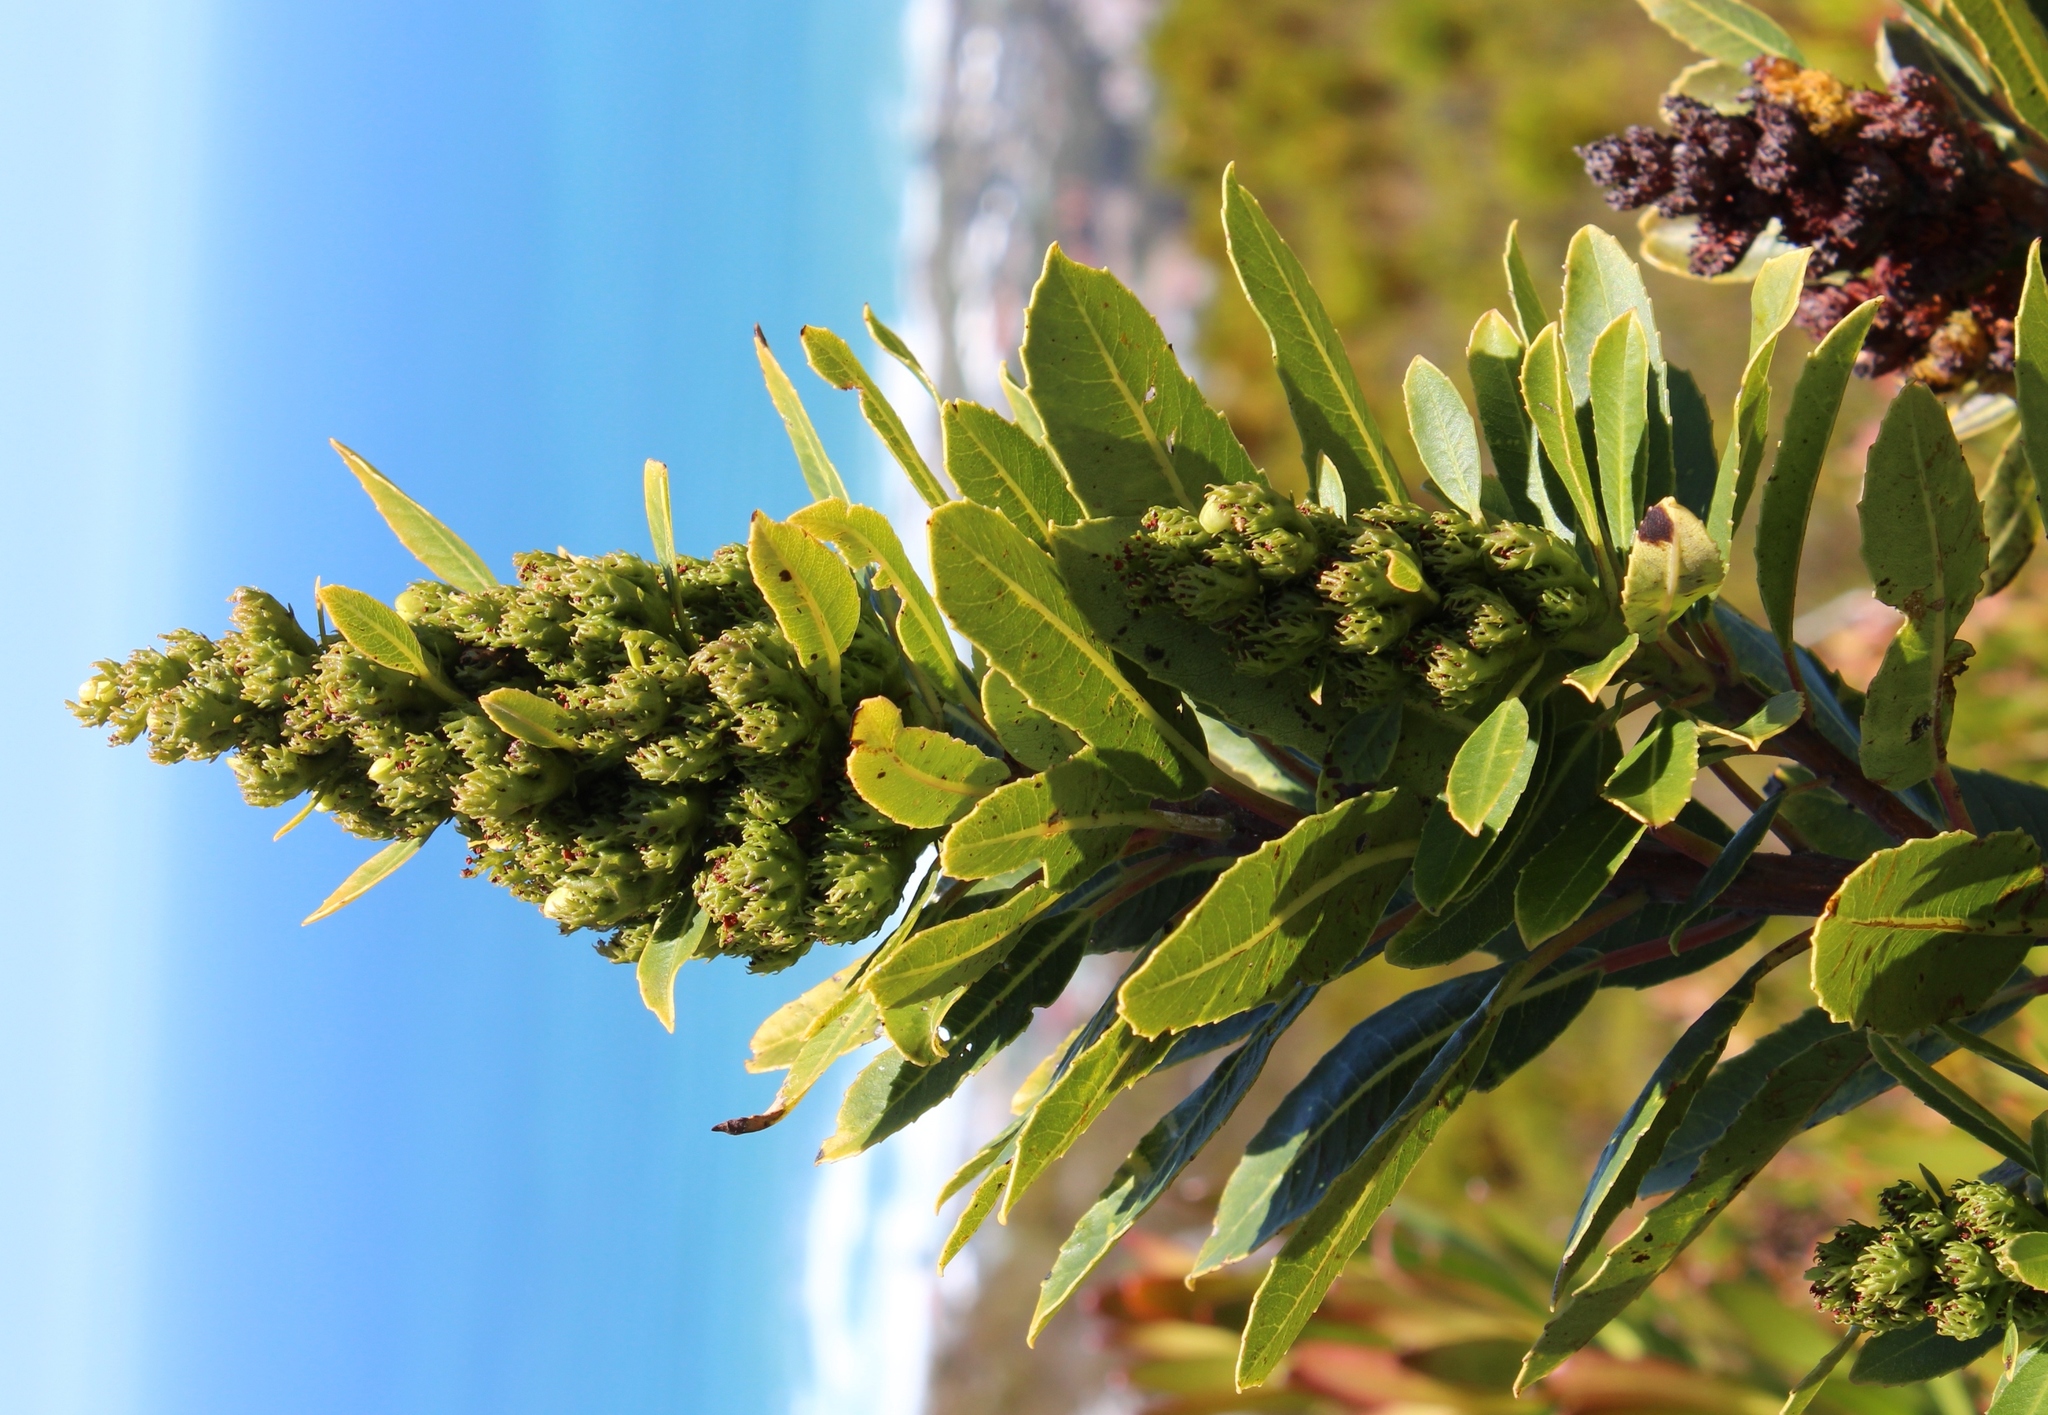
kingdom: Plantae
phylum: Tracheophyta
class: Magnoliopsida
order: Sapindales
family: Anacardiaceae
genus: Laurophyllus
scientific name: Laurophyllus capensis
